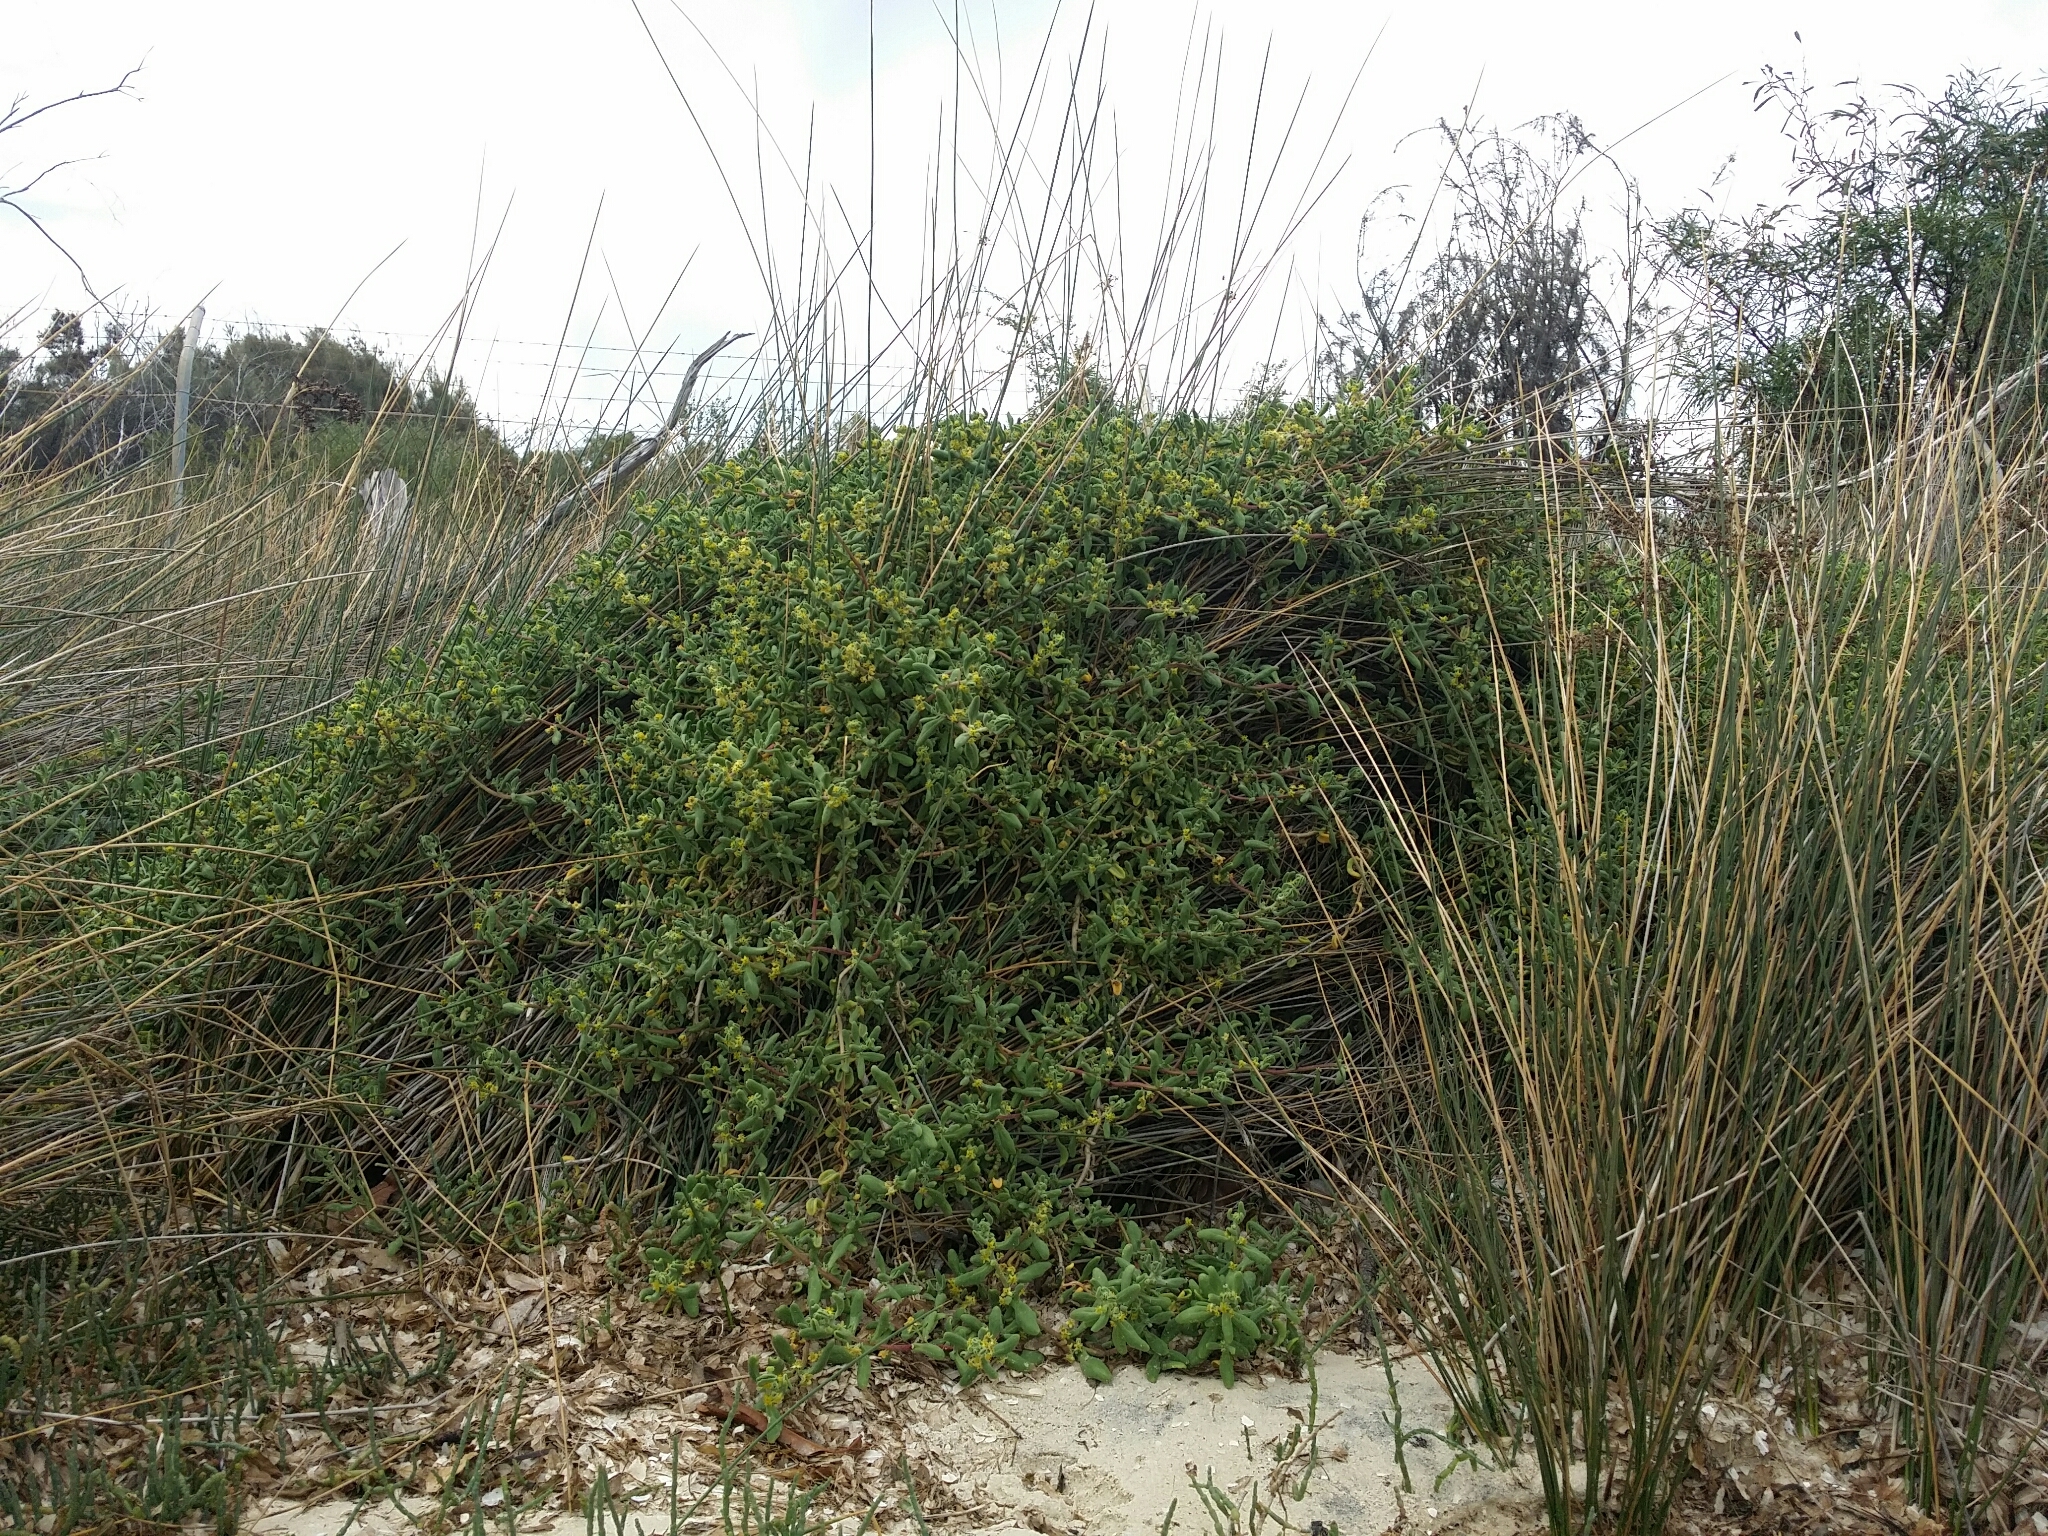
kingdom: Plantae
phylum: Tracheophyta
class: Magnoliopsida
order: Caryophyllales
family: Aizoaceae
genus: Tetragonia
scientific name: Tetragonia decumbens
